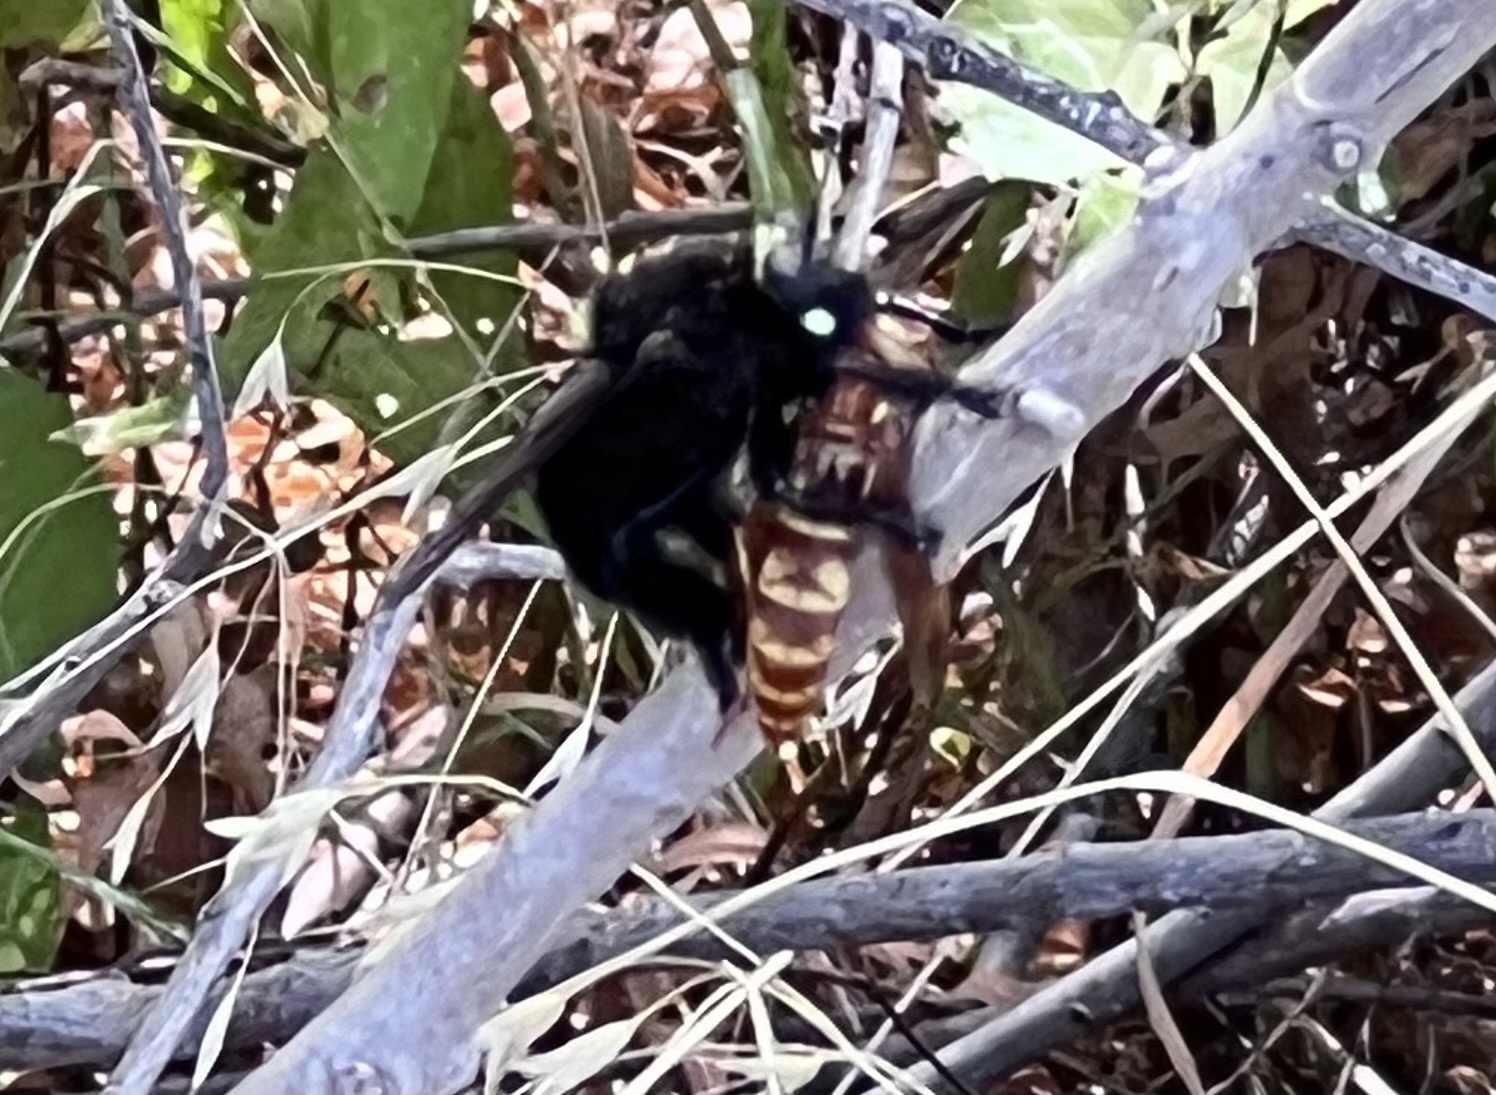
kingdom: Animalia
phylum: Arthropoda
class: Insecta
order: Diptera
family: Asilidae
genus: Mallophora
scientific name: Mallophora leschenaultii
